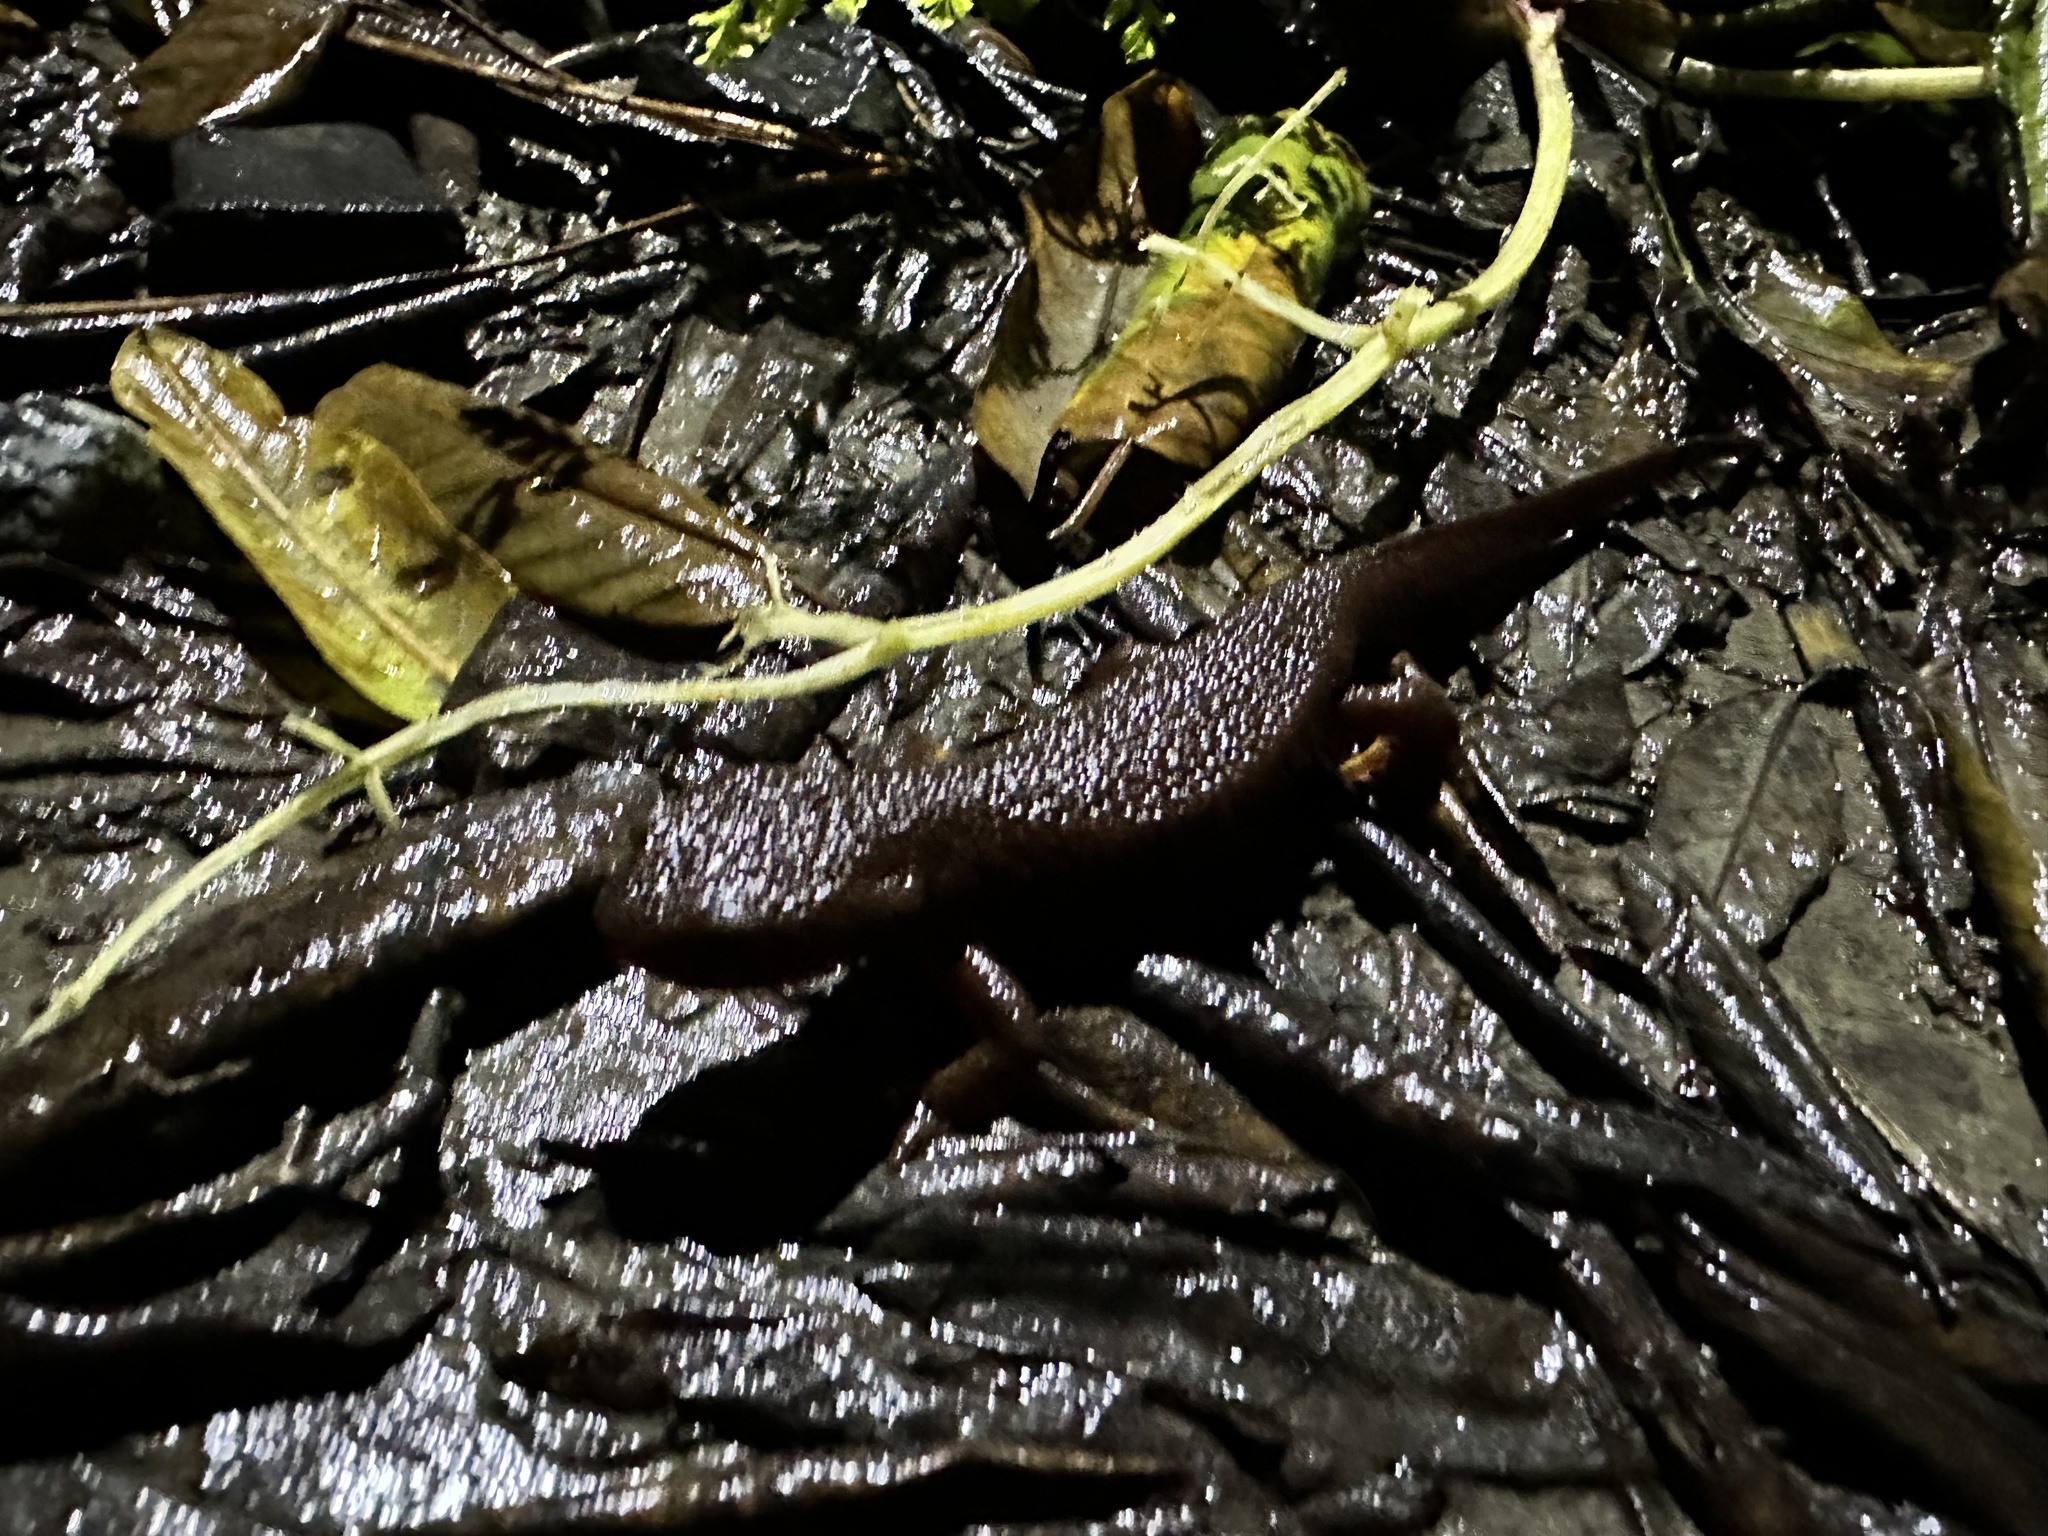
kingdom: Animalia
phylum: Chordata
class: Amphibia
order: Caudata
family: Salamandridae
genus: Taricha
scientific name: Taricha granulosa
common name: Roughskin newt
